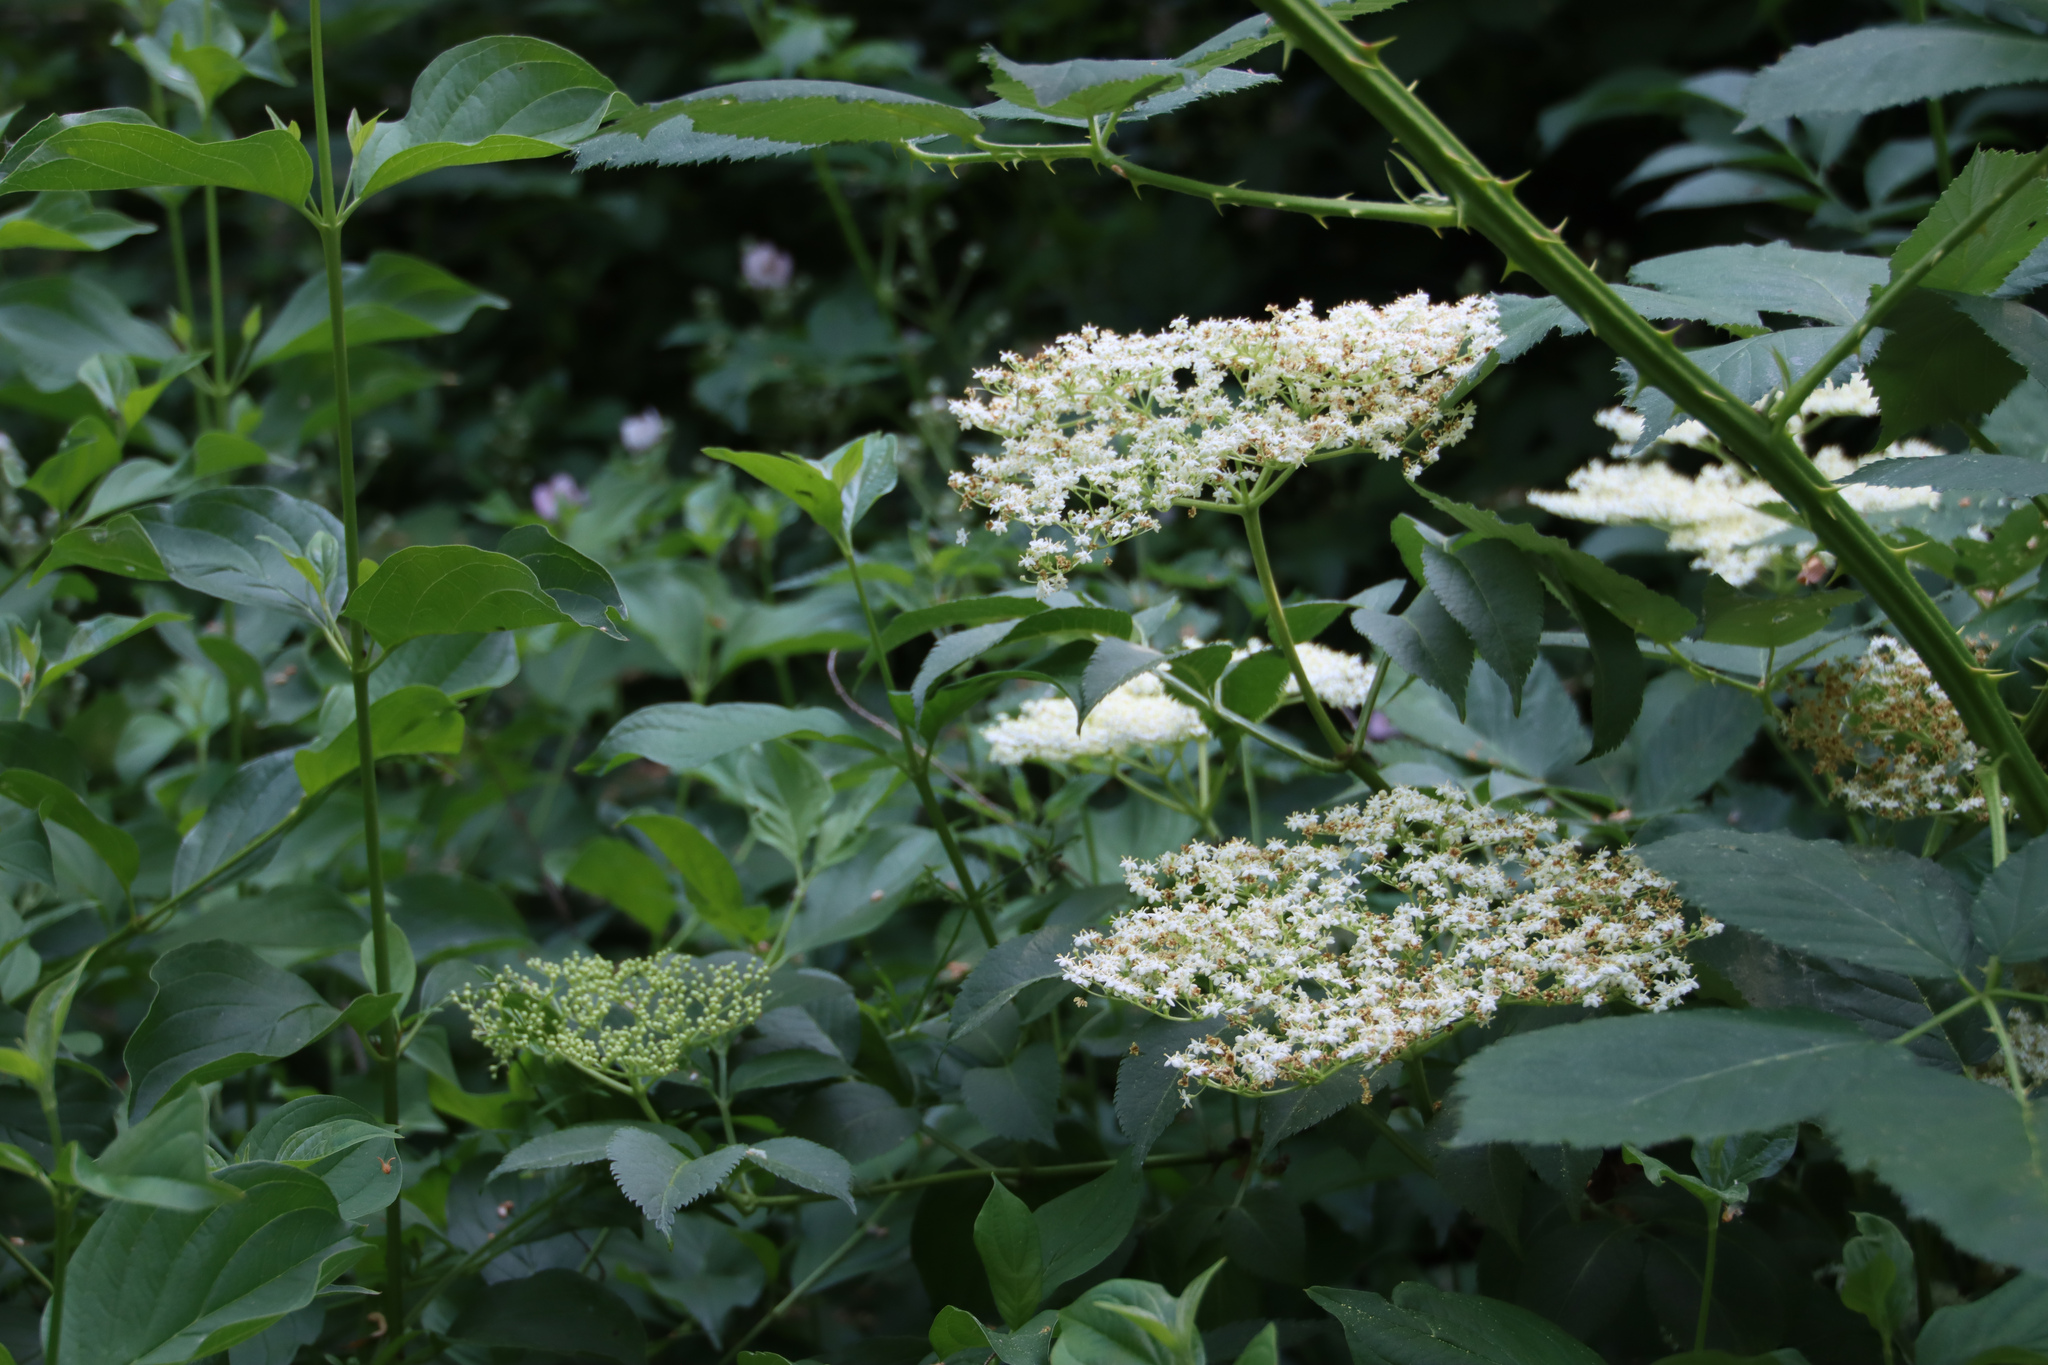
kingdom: Plantae
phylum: Tracheophyta
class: Magnoliopsida
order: Dipsacales
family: Viburnaceae
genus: Sambucus
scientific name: Sambucus nigra
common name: Elder
